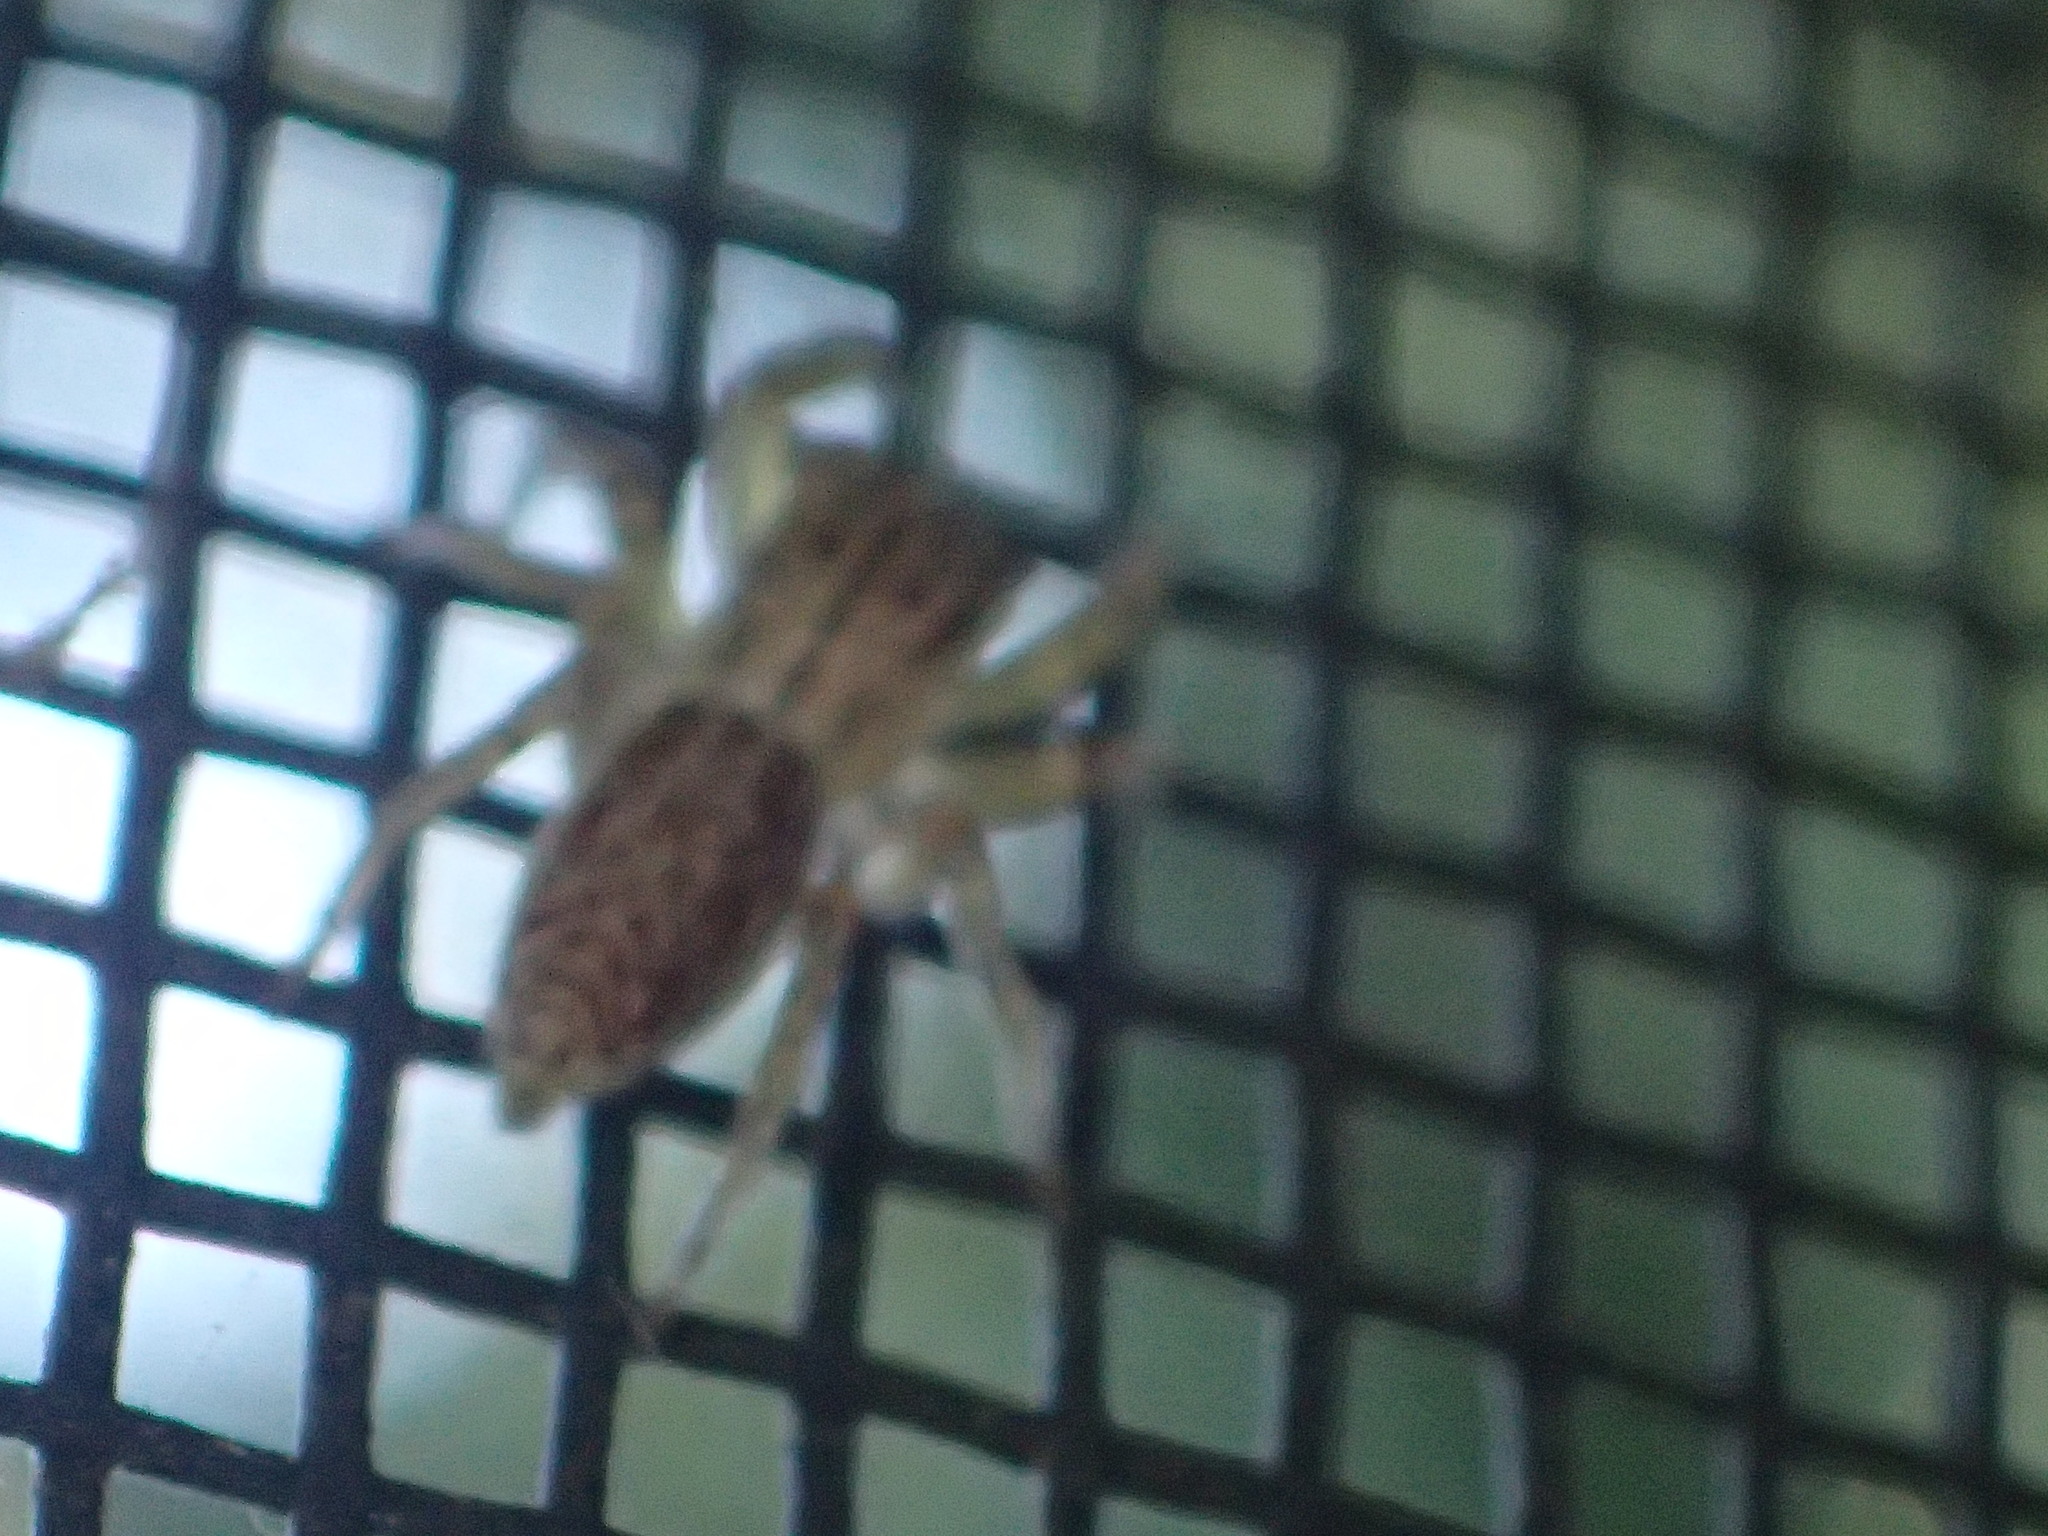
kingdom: Animalia
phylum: Arthropoda
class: Arachnida
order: Araneae
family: Salticidae
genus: Maevia
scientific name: Maevia inclemens
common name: Dimorphic jumper
